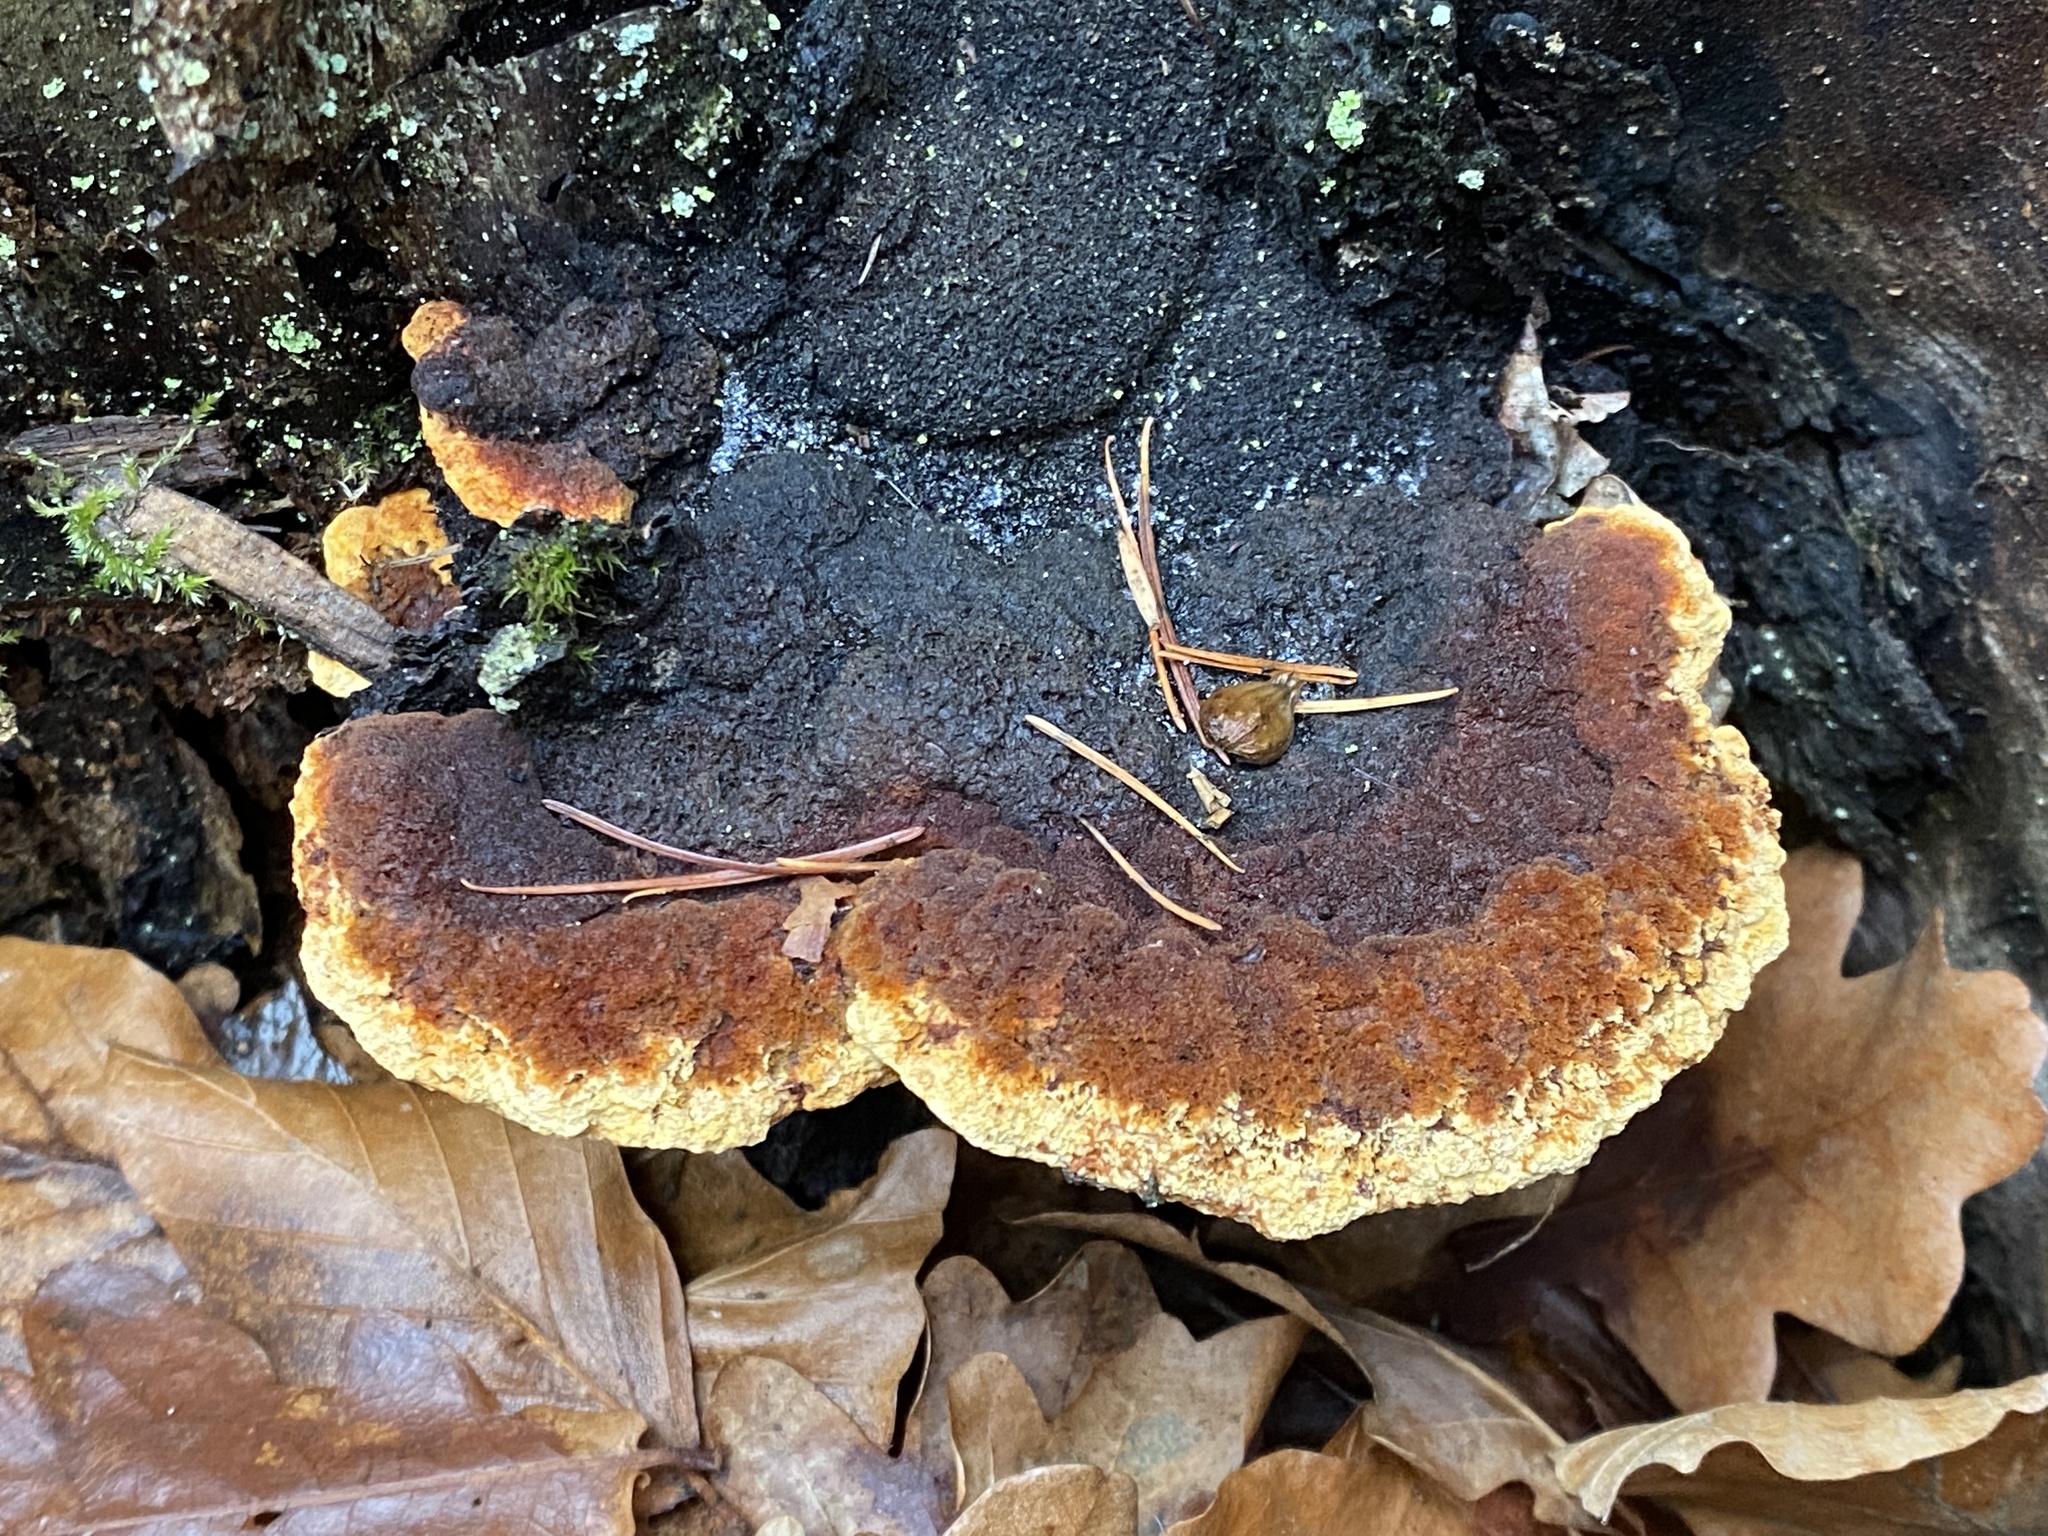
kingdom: Fungi
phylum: Basidiomycota
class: Agaricomycetes
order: Gloeophyllales
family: Gloeophyllaceae
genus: Gloeophyllum
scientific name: Gloeophyllum odoratum
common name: Anise mazegill
